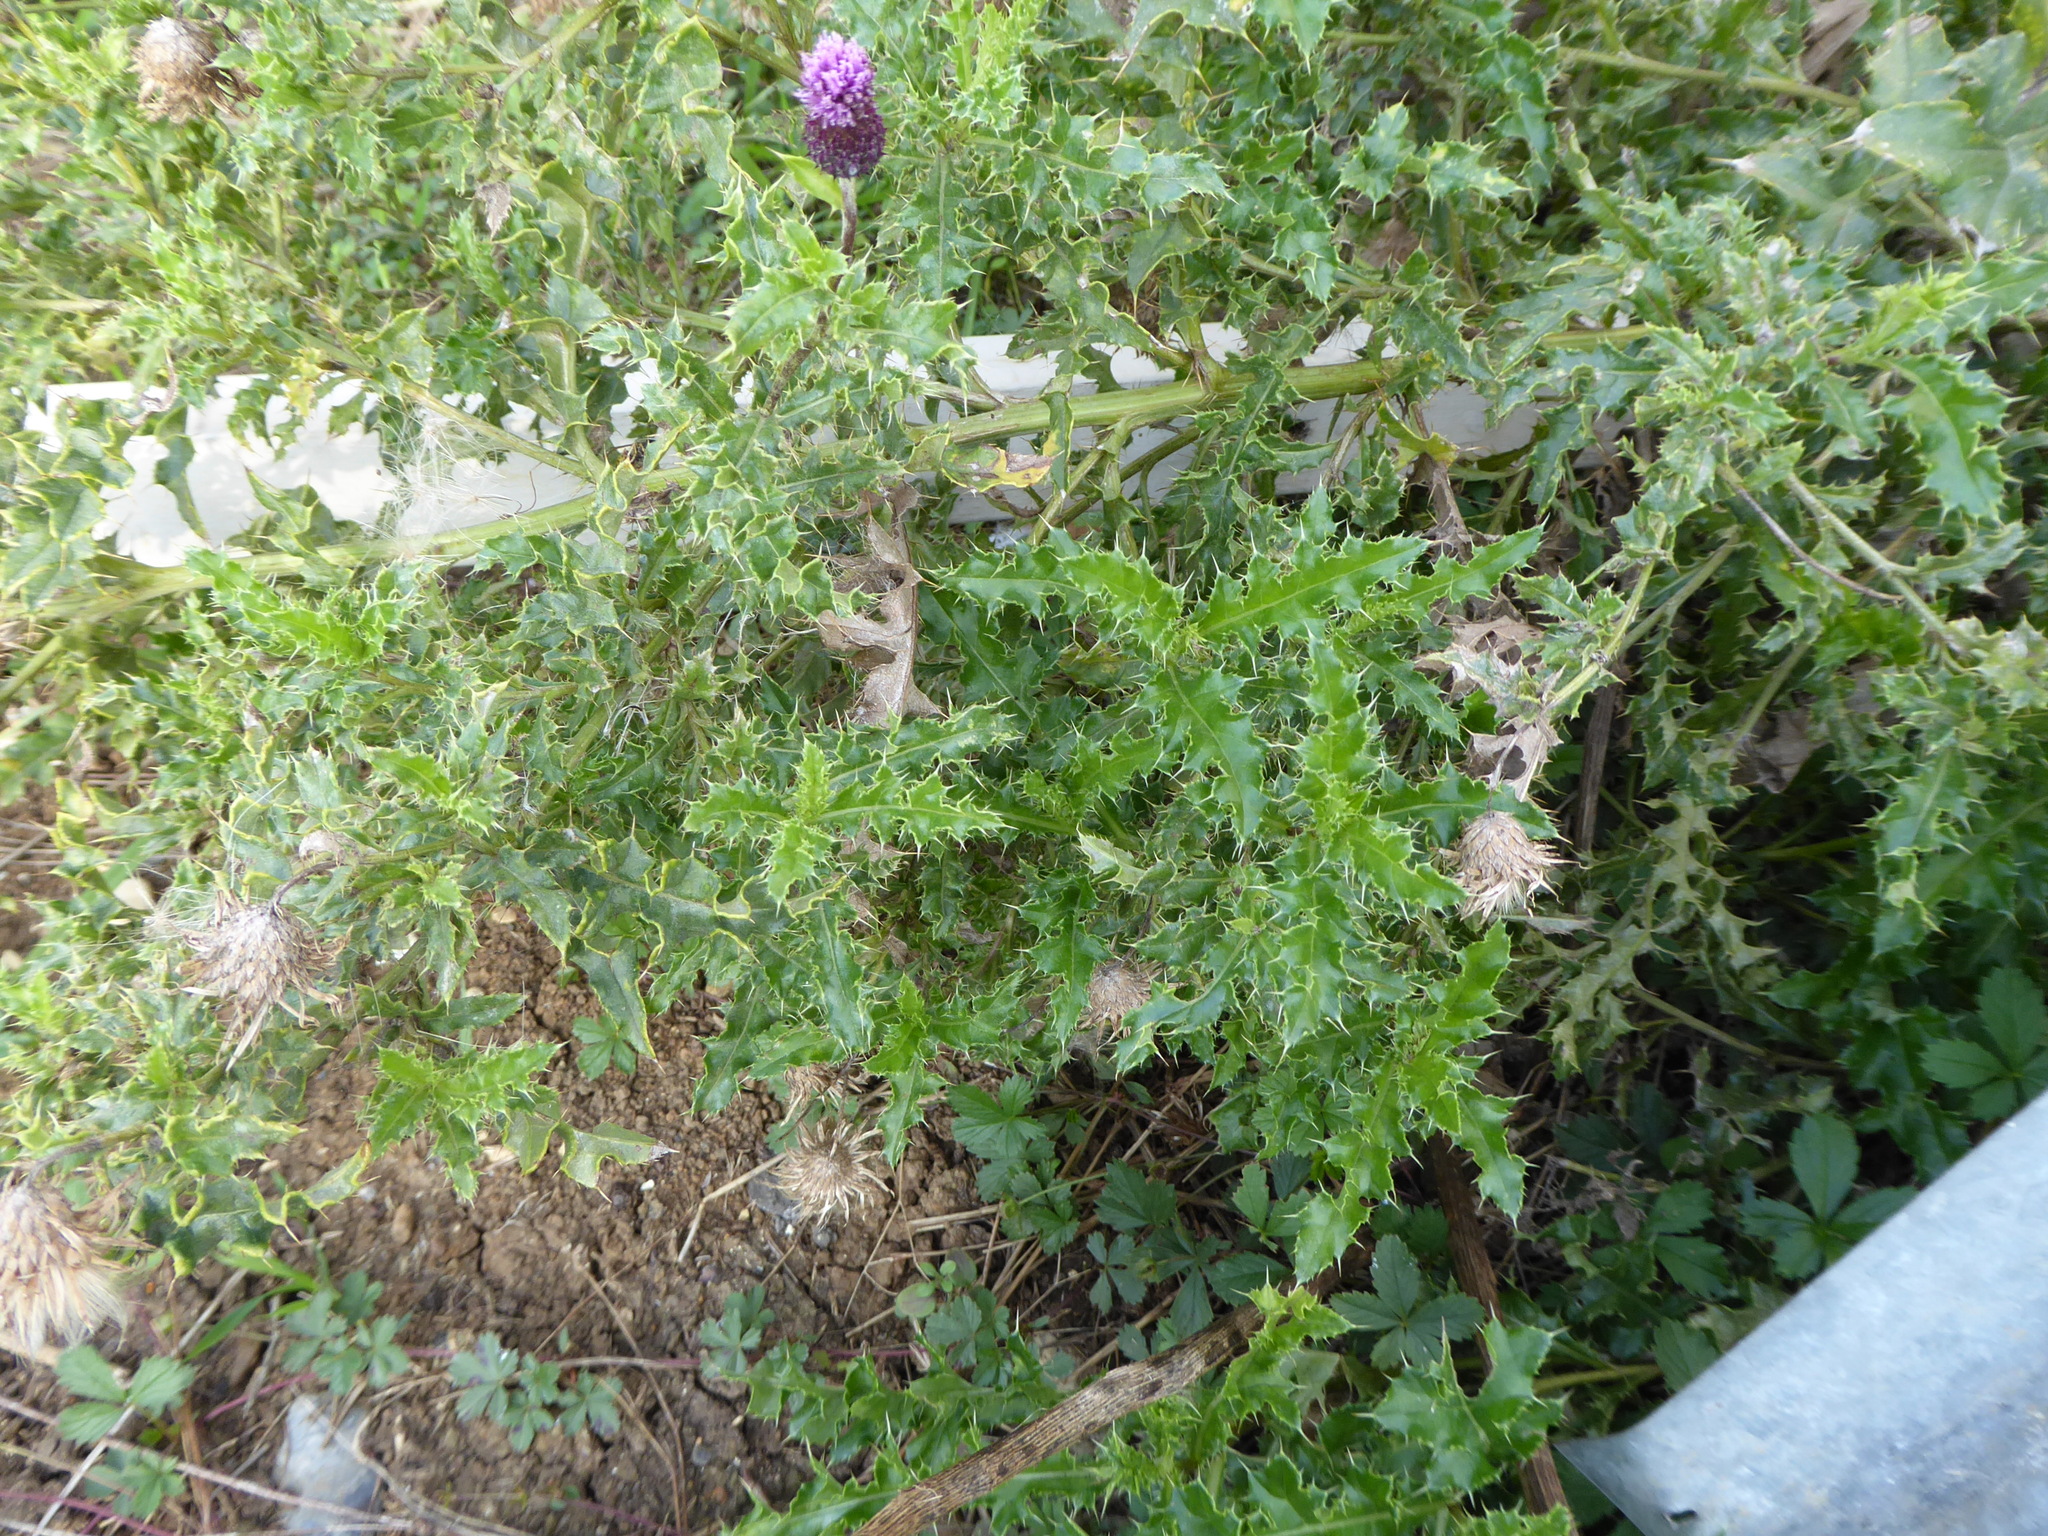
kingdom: Plantae
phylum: Tracheophyta
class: Magnoliopsida
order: Asterales
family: Asteraceae
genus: Cirsium
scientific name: Cirsium arvense
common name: Creeping thistle
